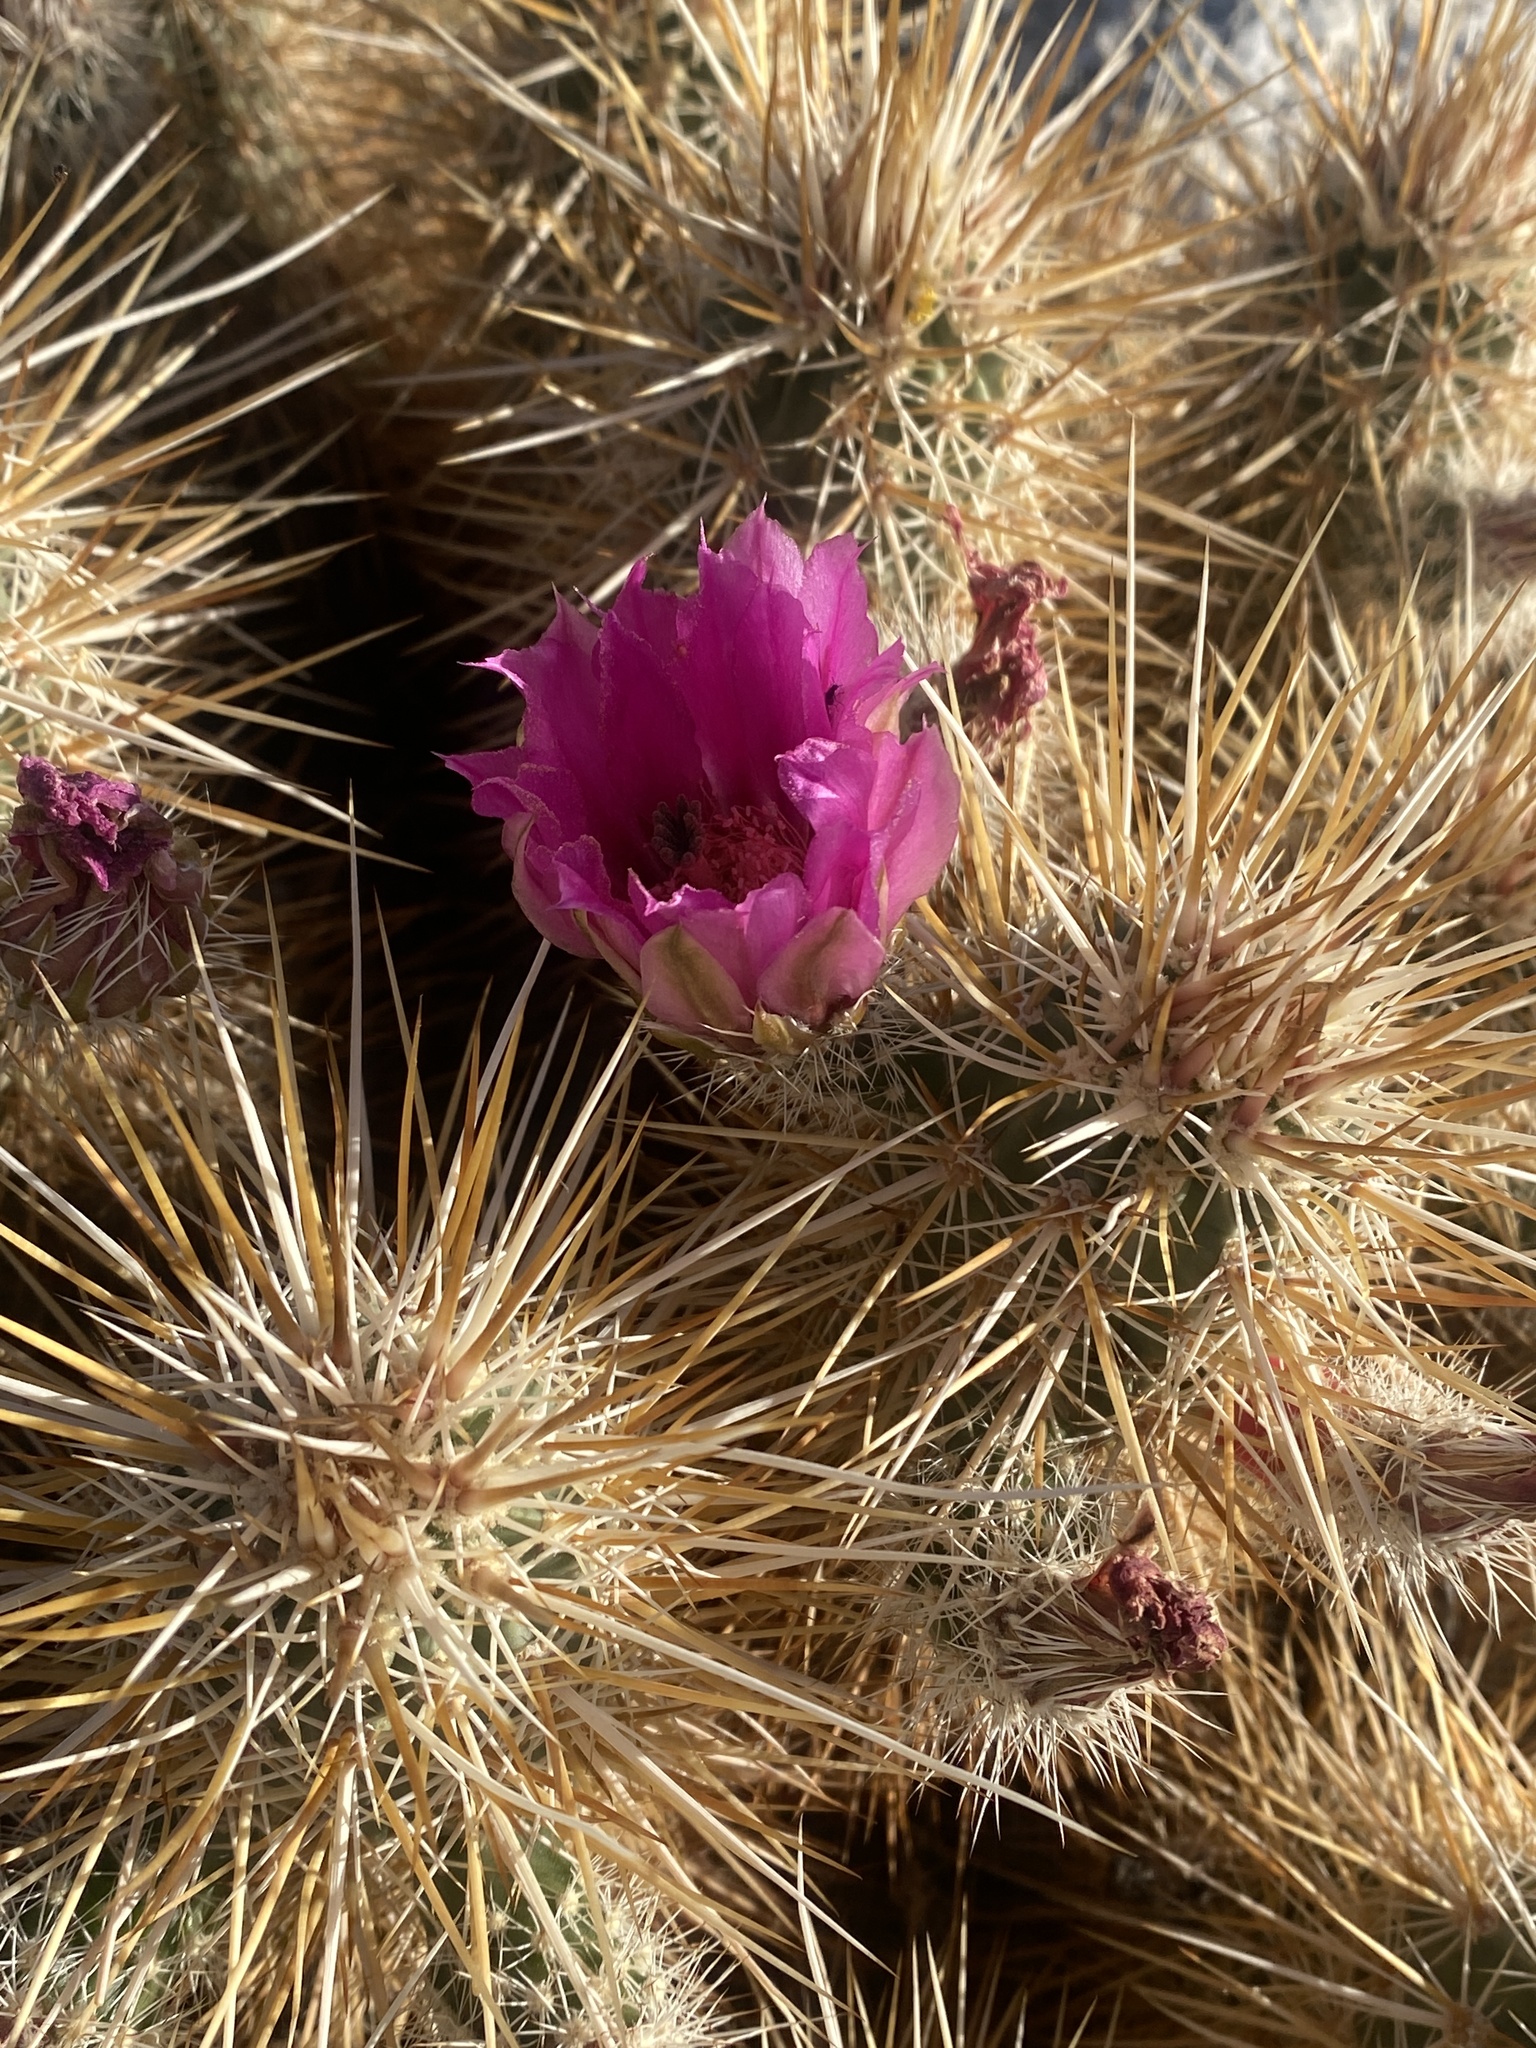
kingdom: Plantae
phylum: Tracheophyta
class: Magnoliopsida
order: Caryophyllales
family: Cactaceae
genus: Echinocereus
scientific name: Echinocereus engelmannii
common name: Engelmann's hedgehog cactus
